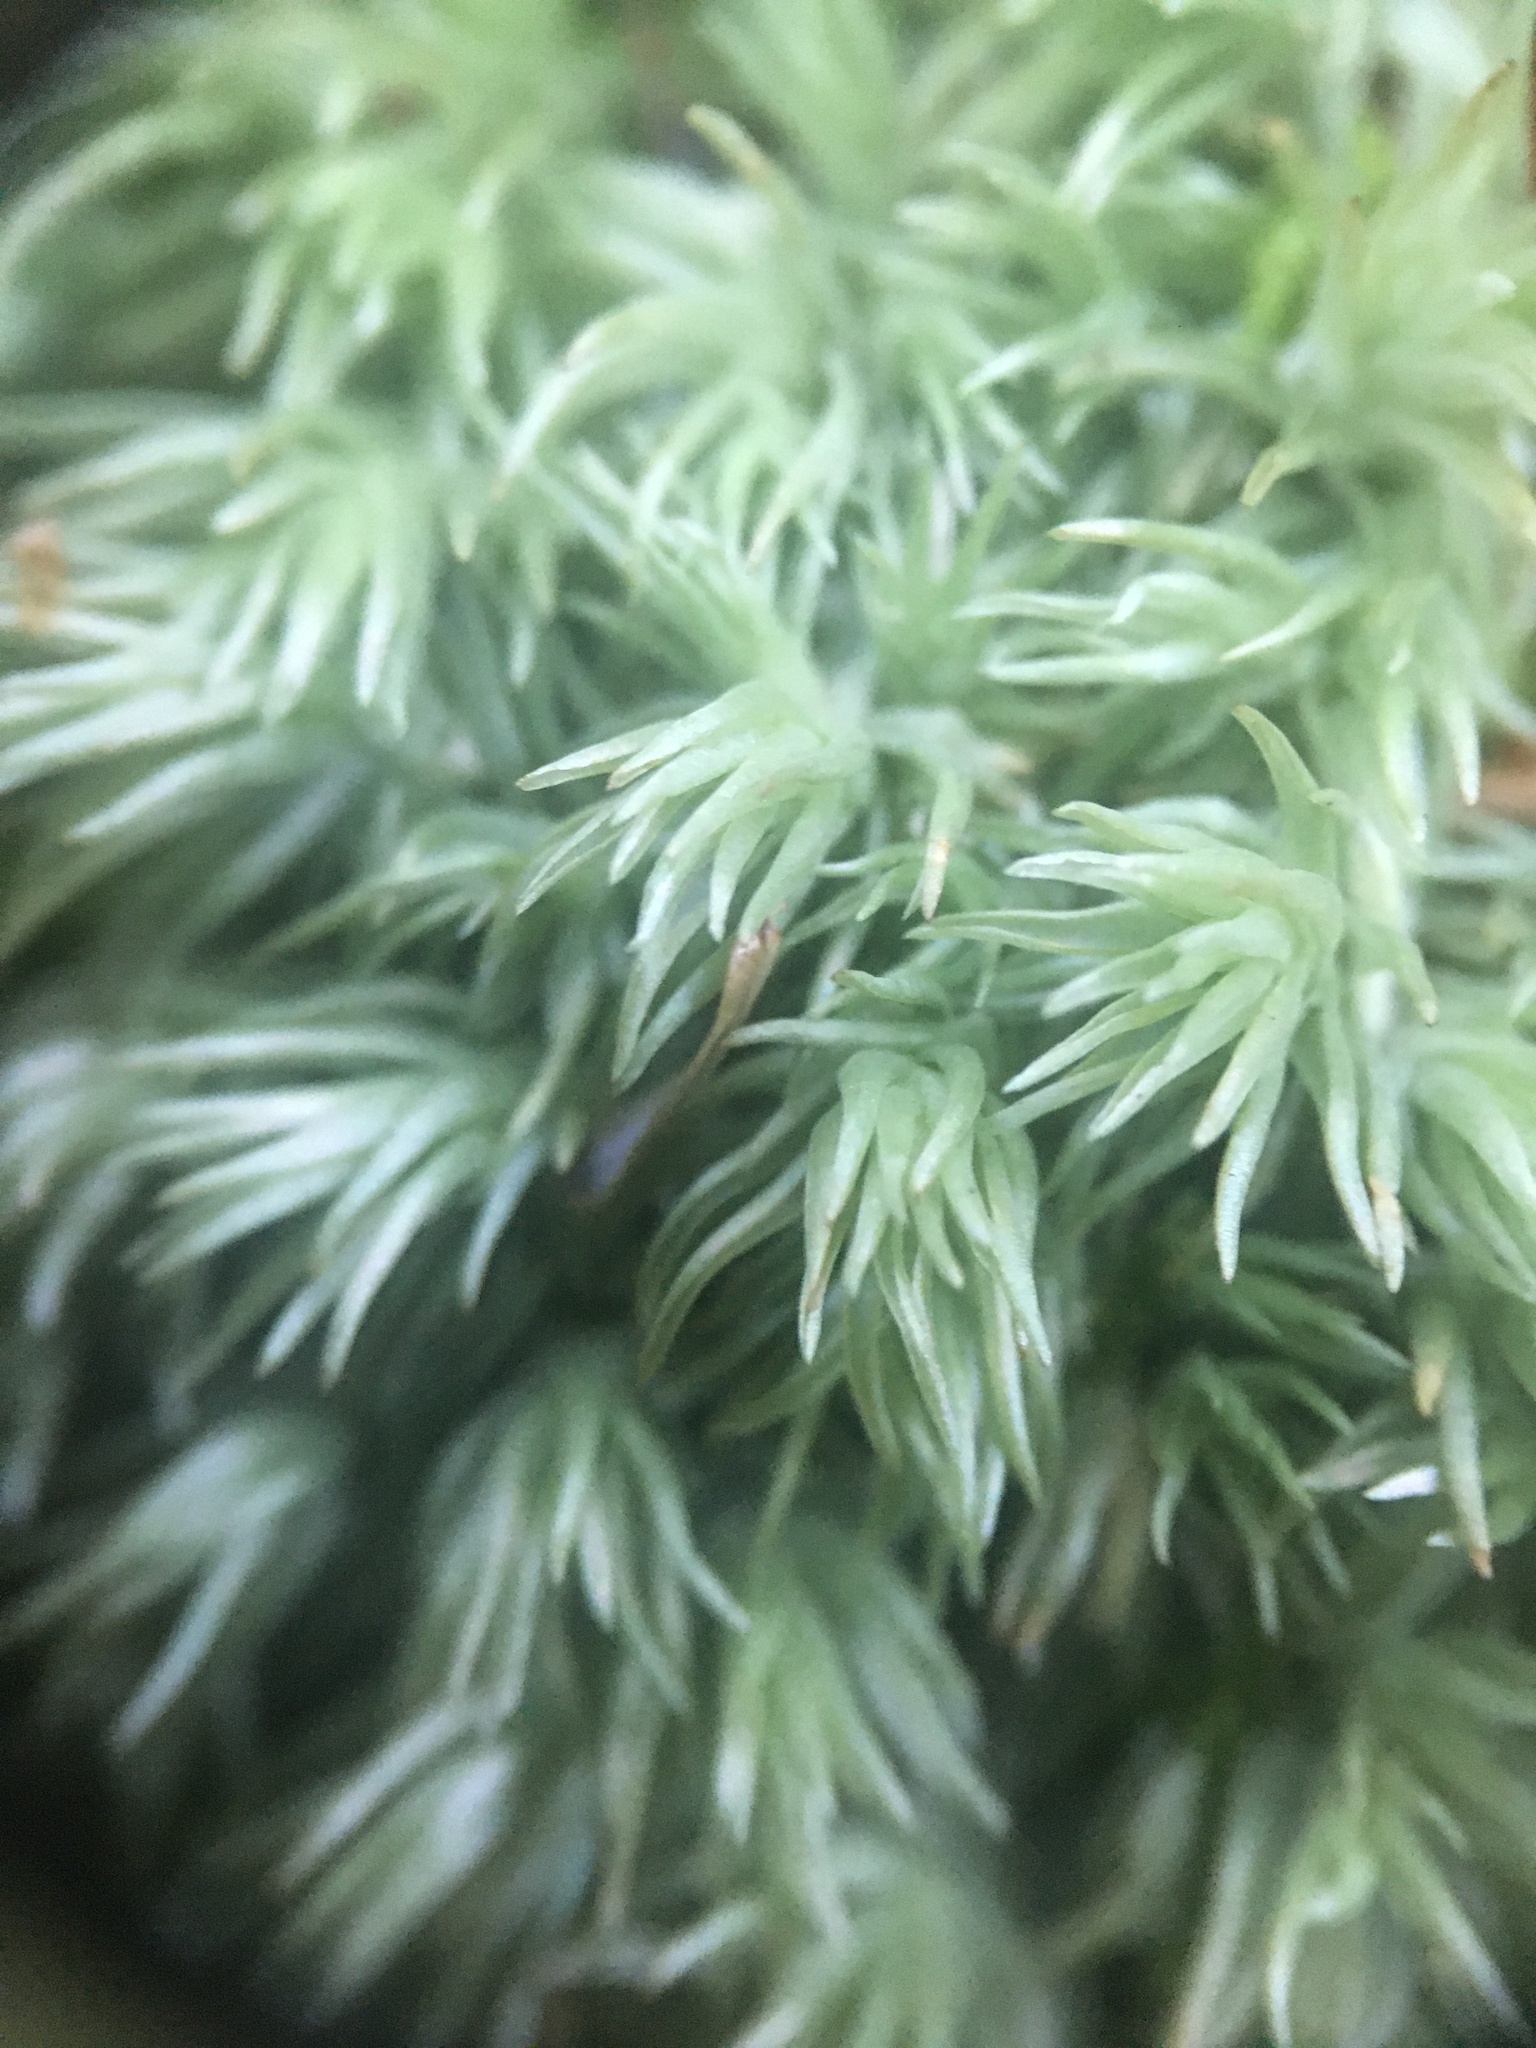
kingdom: Plantae
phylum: Bryophyta
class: Bryopsida
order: Dicranales
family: Leucobryaceae
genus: Leucobryum
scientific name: Leucobryum glaucum
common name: Large white-moss
